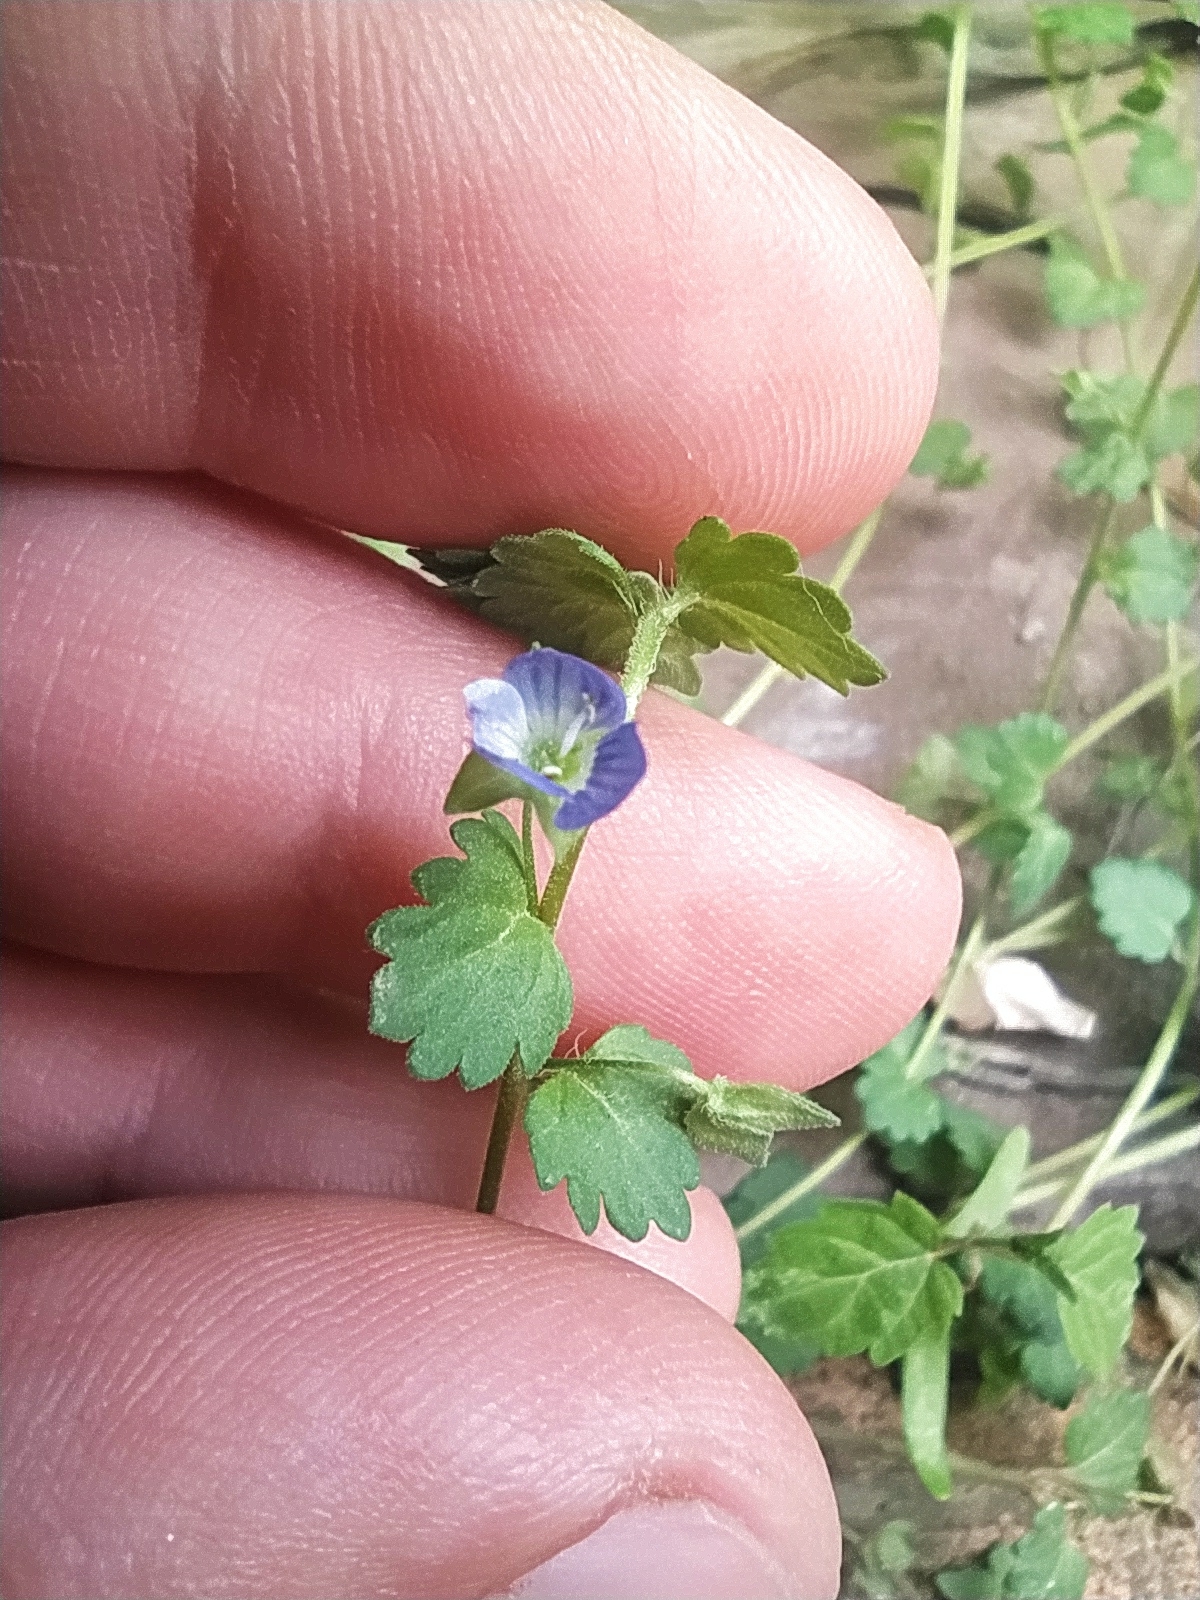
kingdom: Plantae
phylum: Tracheophyta
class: Magnoliopsida
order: Lamiales
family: Plantaginaceae
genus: Veronica
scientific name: Veronica polita
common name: Grey field-speedwell
